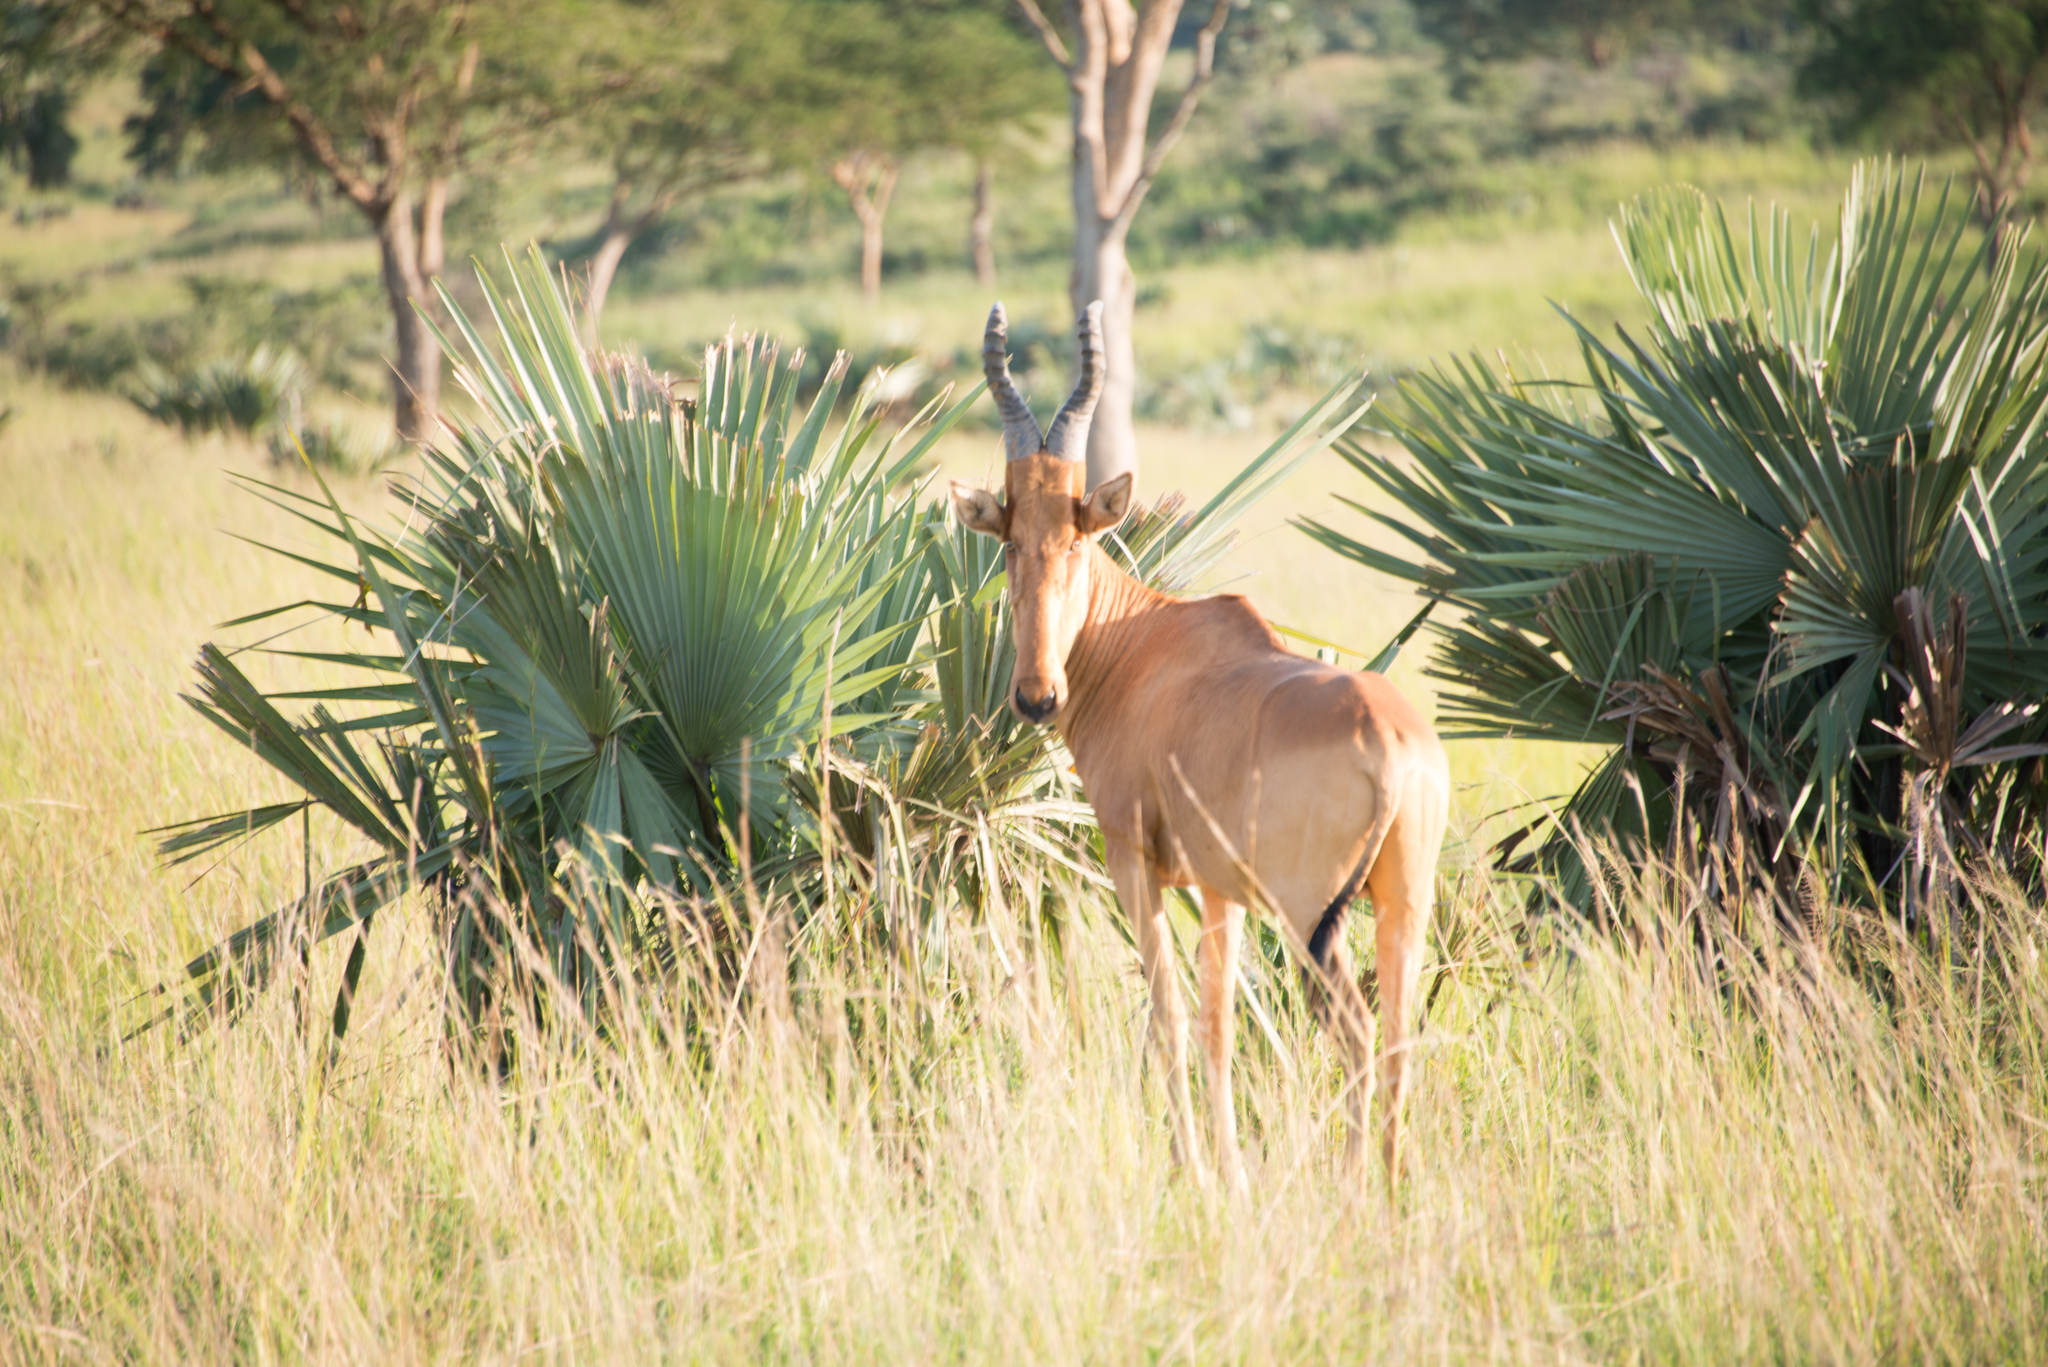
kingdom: Animalia
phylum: Chordata
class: Mammalia
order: Artiodactyla
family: Bovidae
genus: Alcelaphus
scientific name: Alcelaphus buselaphus
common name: Hartebeest
